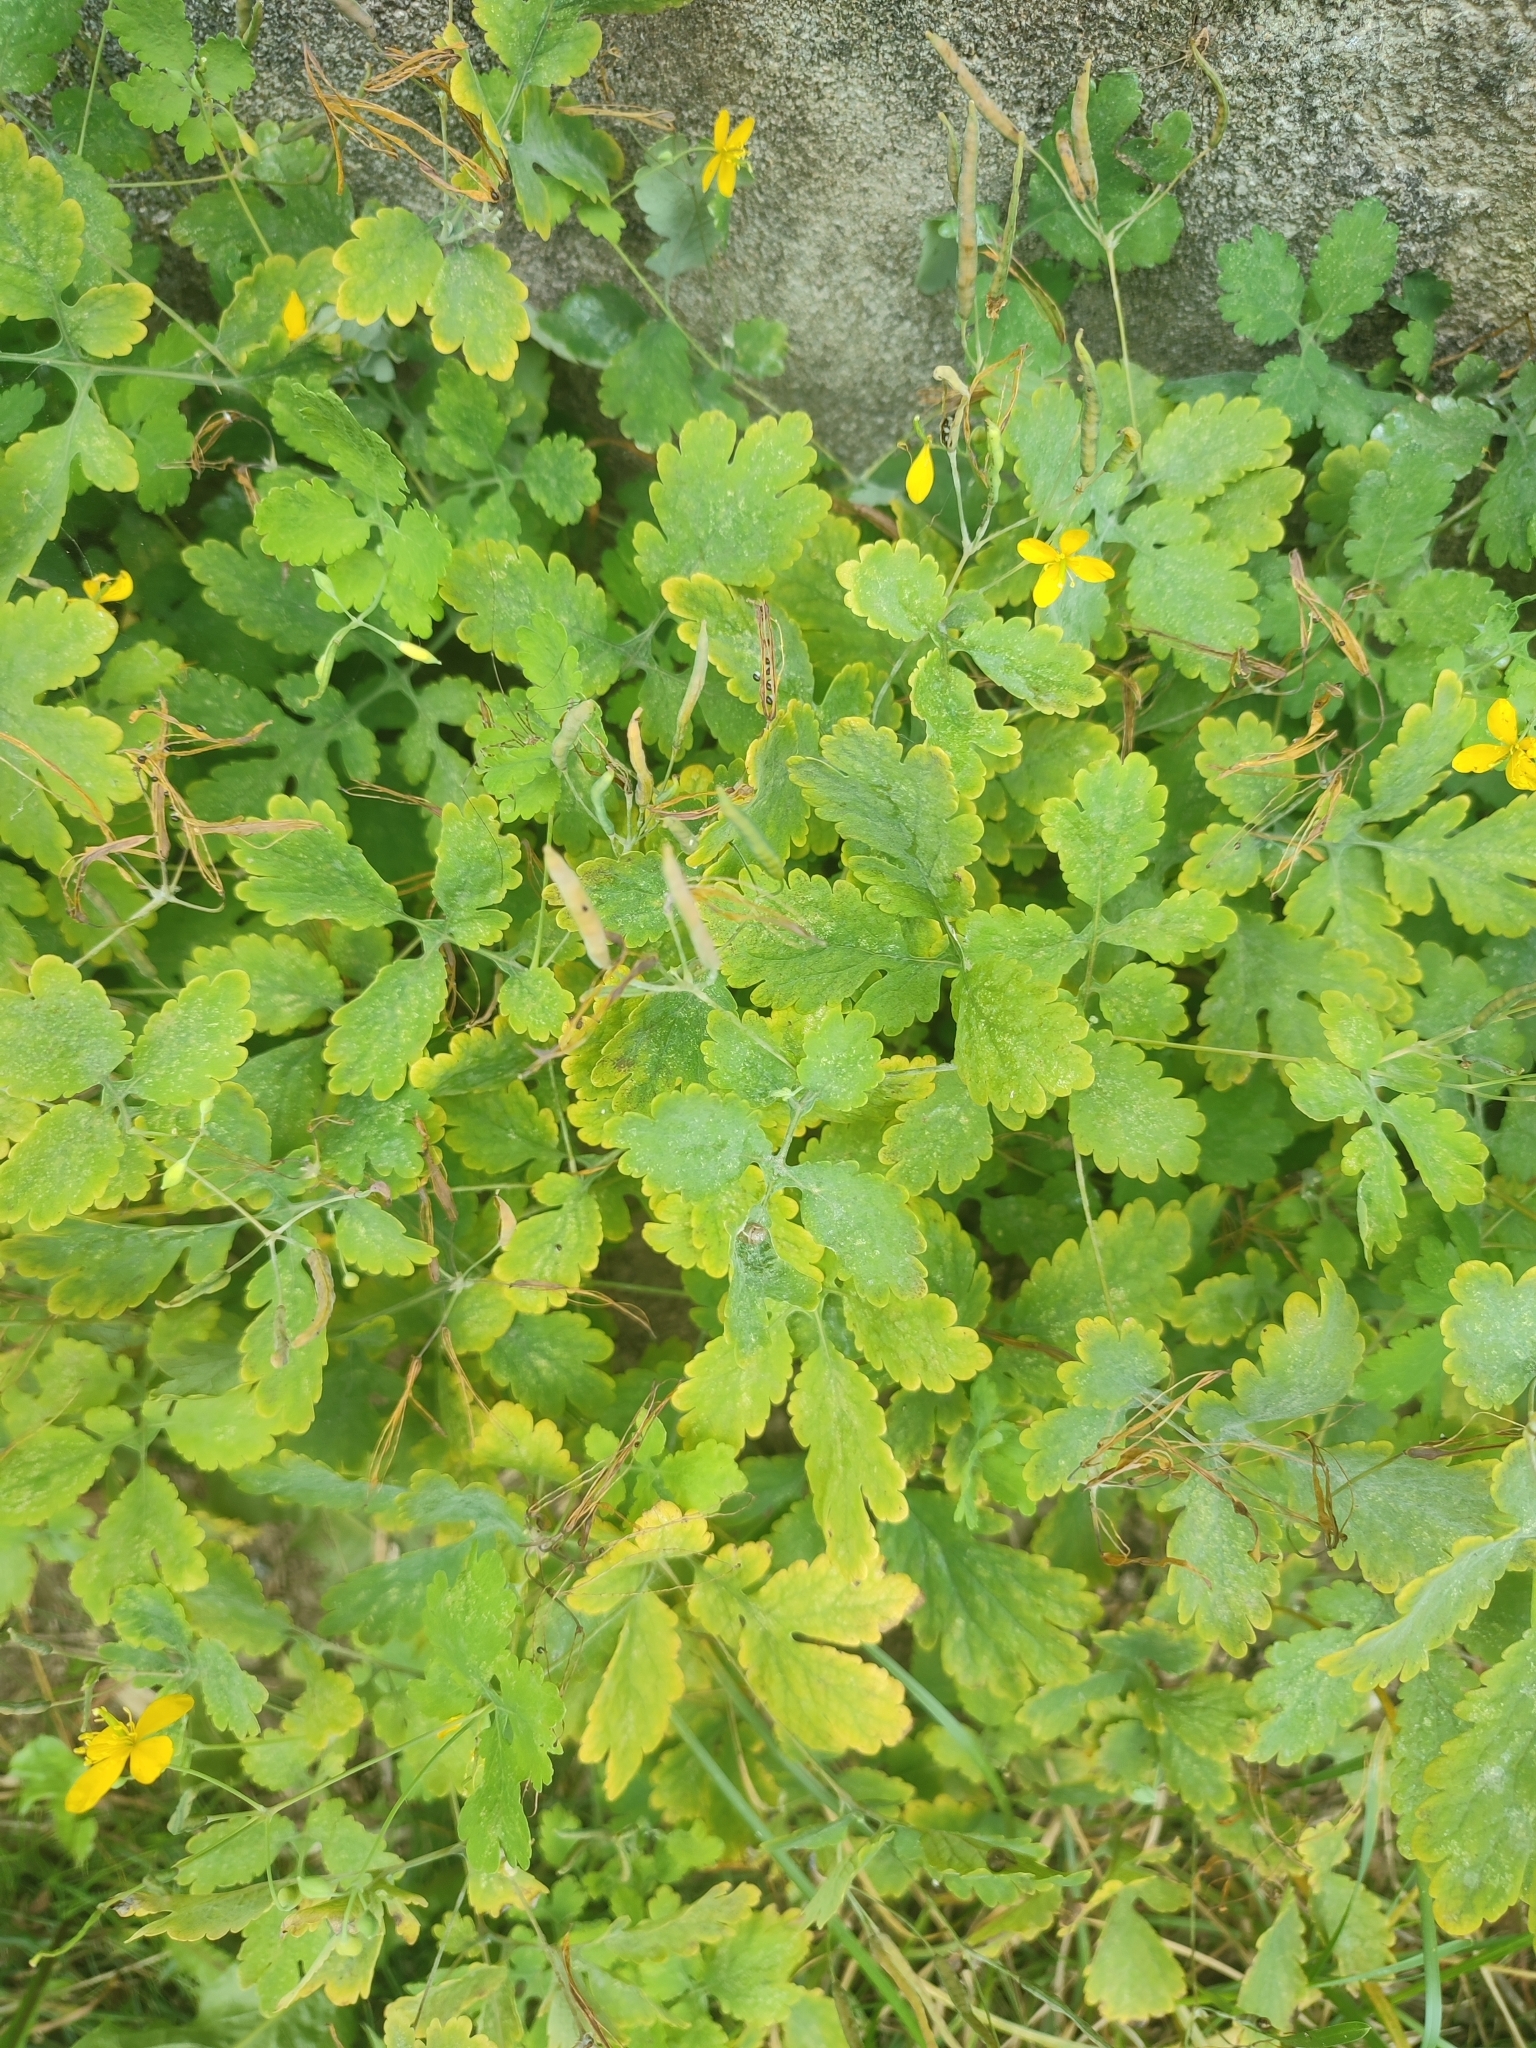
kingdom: Plantae
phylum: Tracheophyta
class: Magnoliopsida
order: Ranunculales
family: Papaveraceae
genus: Chelidonium
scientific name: Chelidonium majus
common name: Greater celandine
